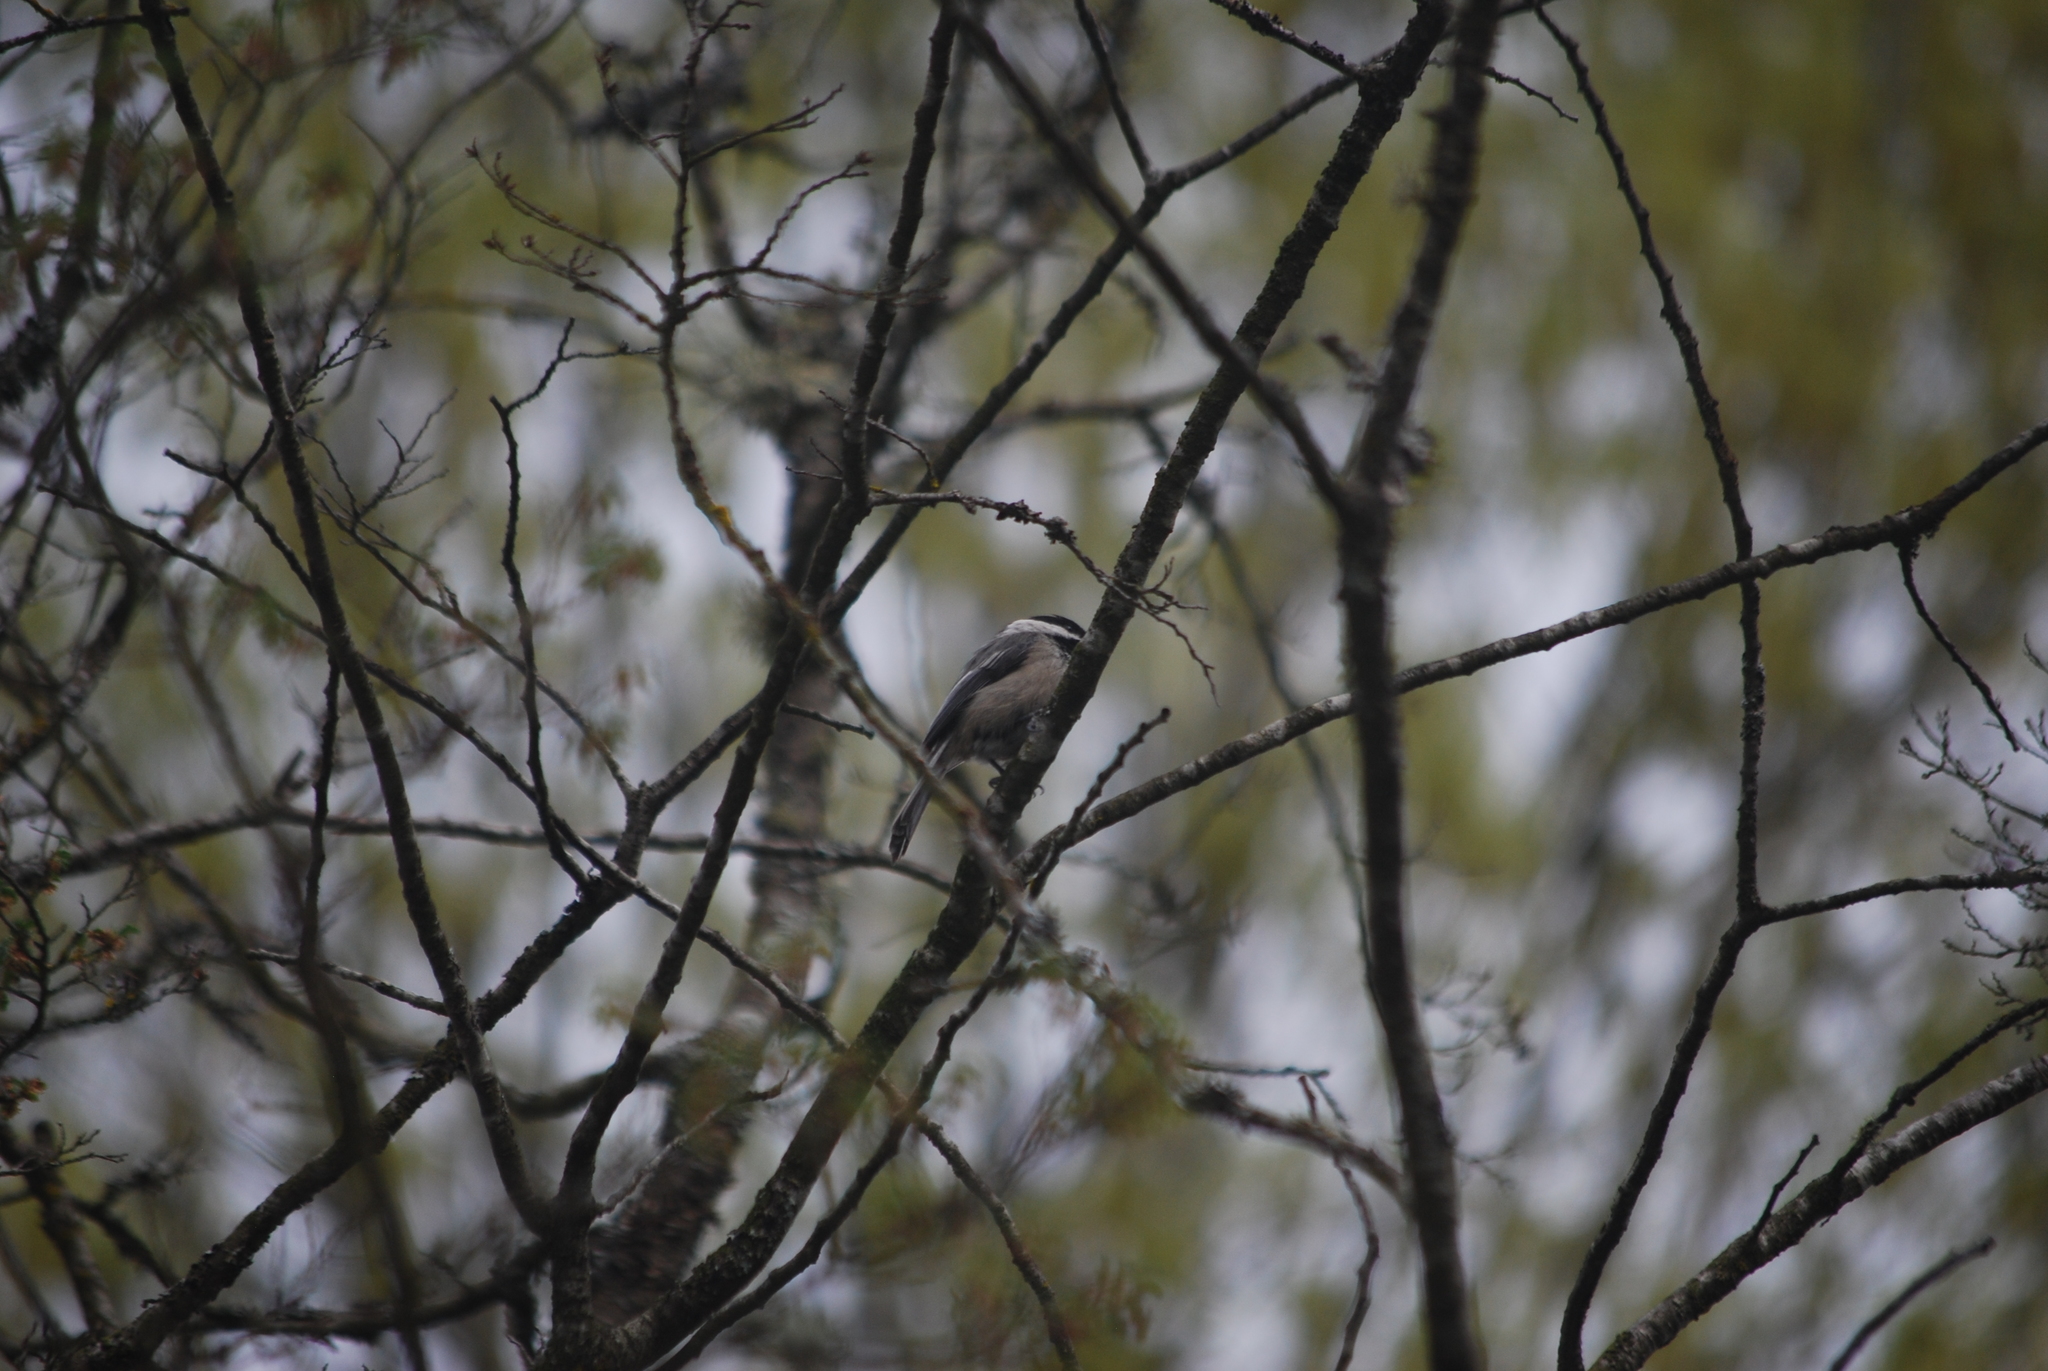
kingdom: Animalia
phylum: Chordata
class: Aves
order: Passeriformes
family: Paridae
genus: Poecile
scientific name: Poecile atricapillus
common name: Black-capped chickadee
